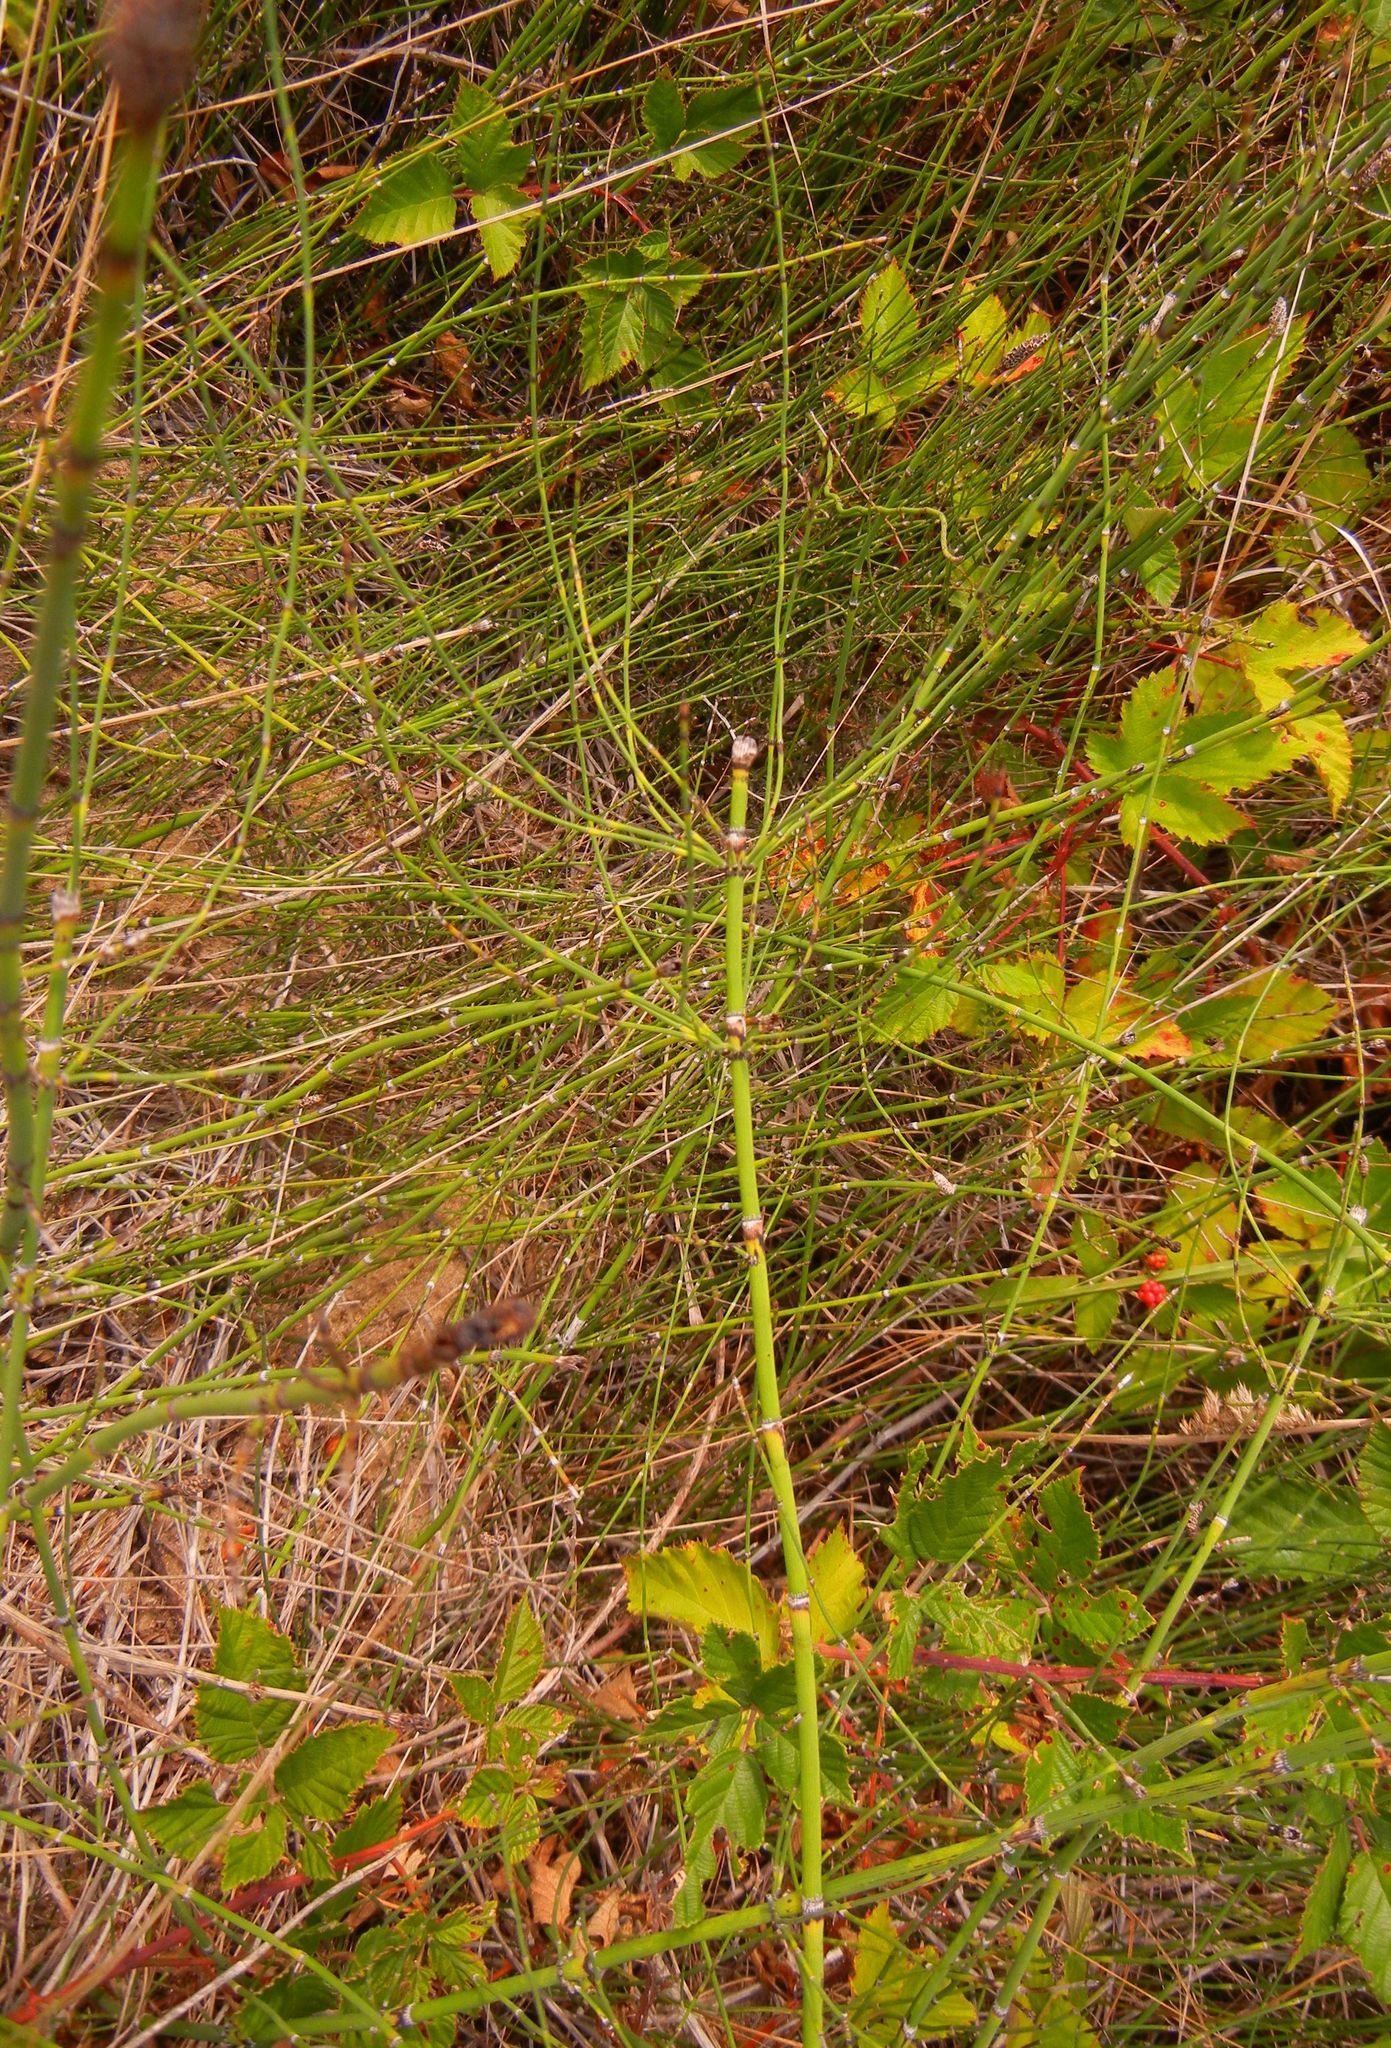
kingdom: Plantae
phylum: Tracheophyta
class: Polypodiopsida
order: Equisetales
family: Equisetaceae
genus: Equisetum
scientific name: Equisetum arvense
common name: Field horsetail
